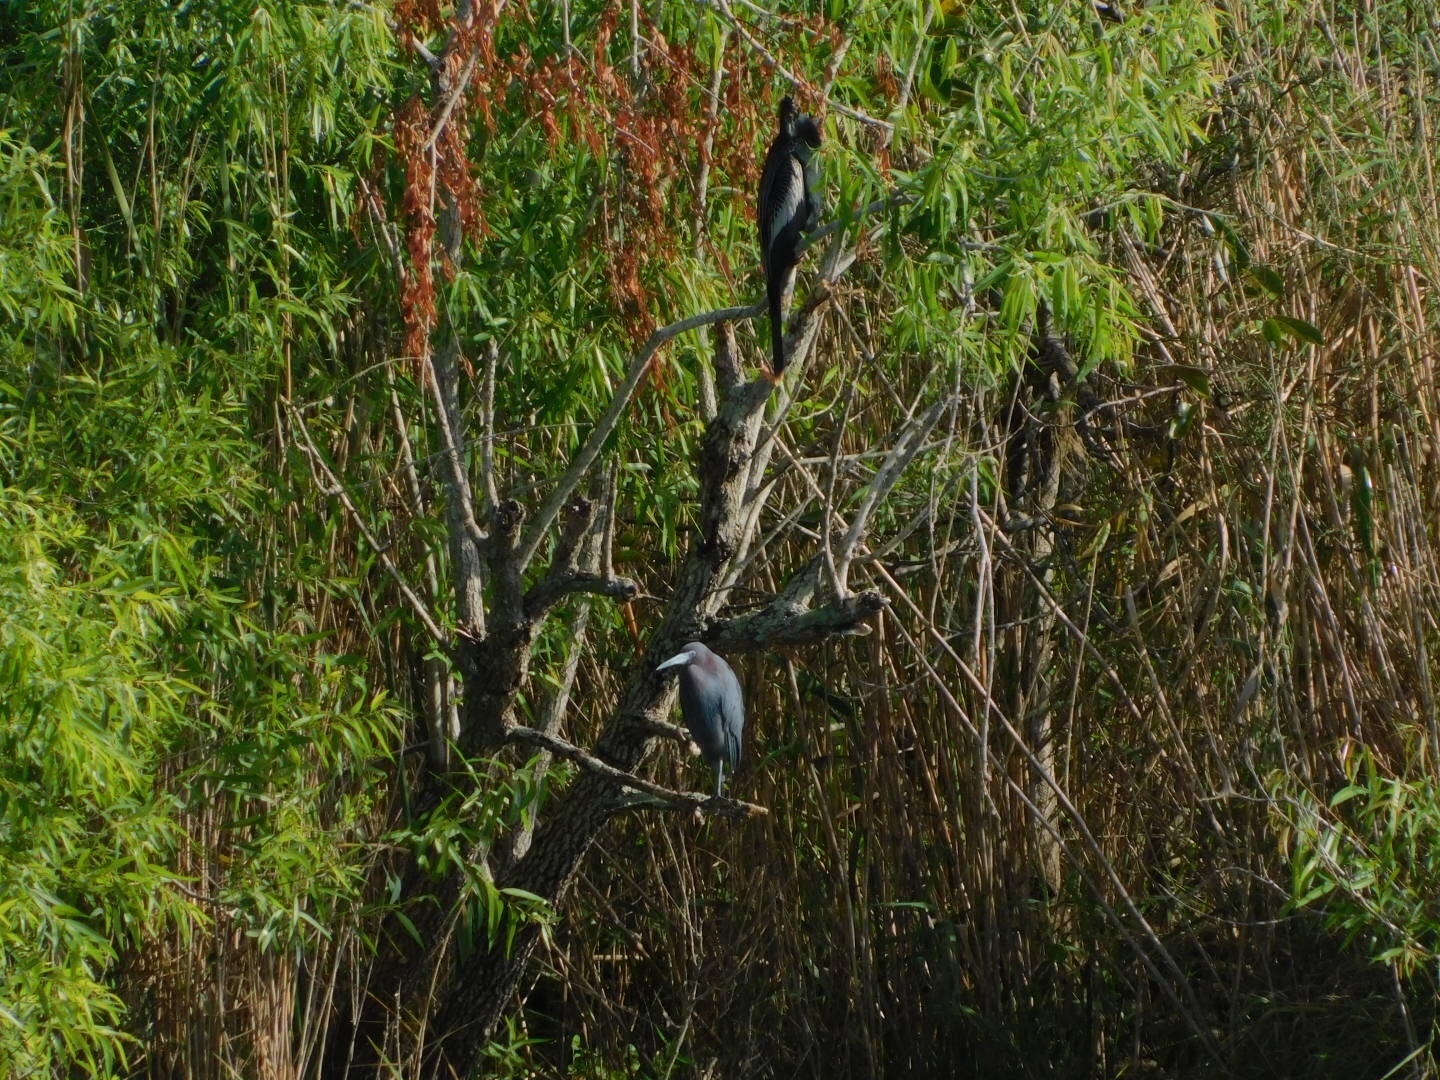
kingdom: Animalia
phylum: Chordata
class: Aves
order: Suliformes
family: Anhingidae
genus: Anhinga
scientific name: Anhinga anhinga
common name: Anhinga
